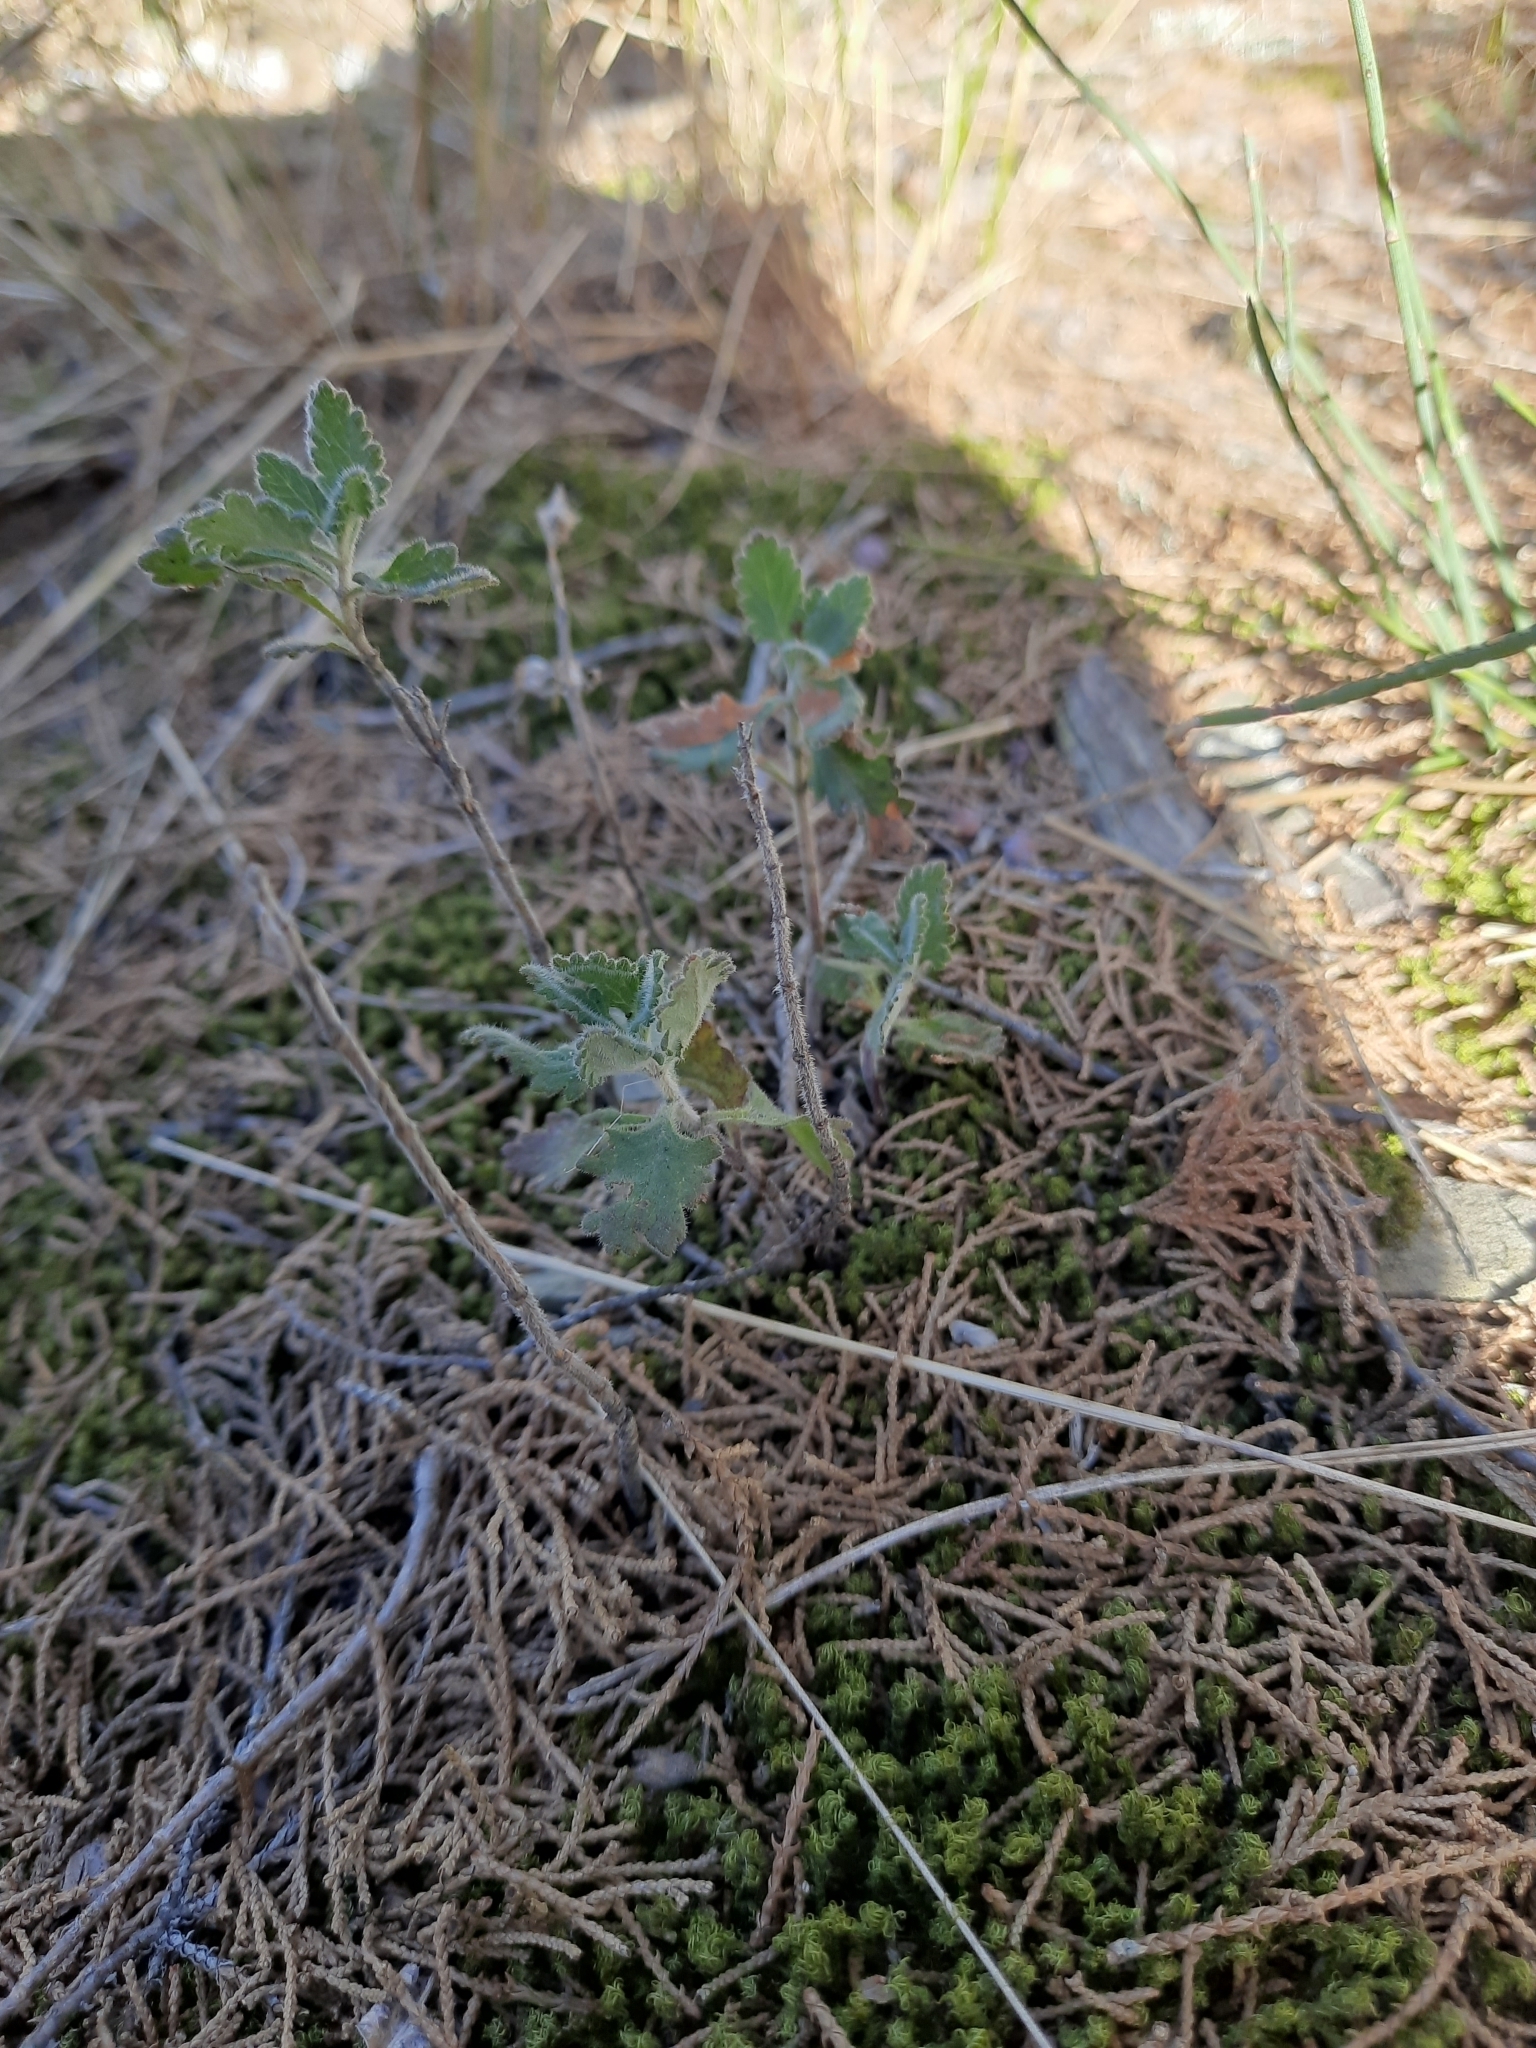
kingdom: Plantae
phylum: Tracheophyta
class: Magnoliopsida
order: Lamiales
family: Lamiaceae
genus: Teucrium
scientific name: Teucrium chamaedrys
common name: Wall germander
